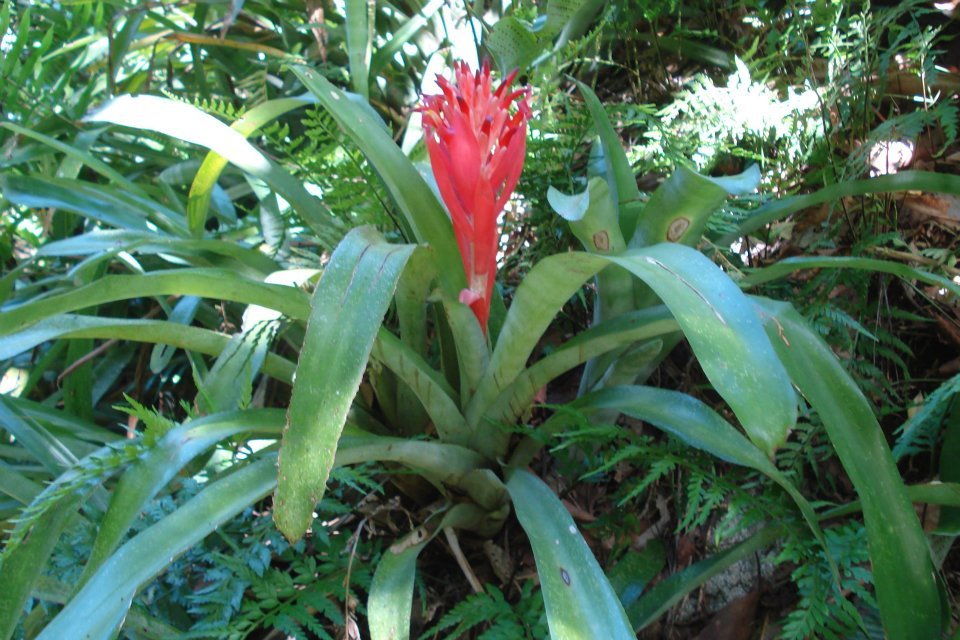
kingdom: Plantae
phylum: Tracheophyta
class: Liliopsida
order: Poales
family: Bromeliaceae
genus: Billbergia
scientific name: Billbergia pyramidalis
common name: Foolproofplant
